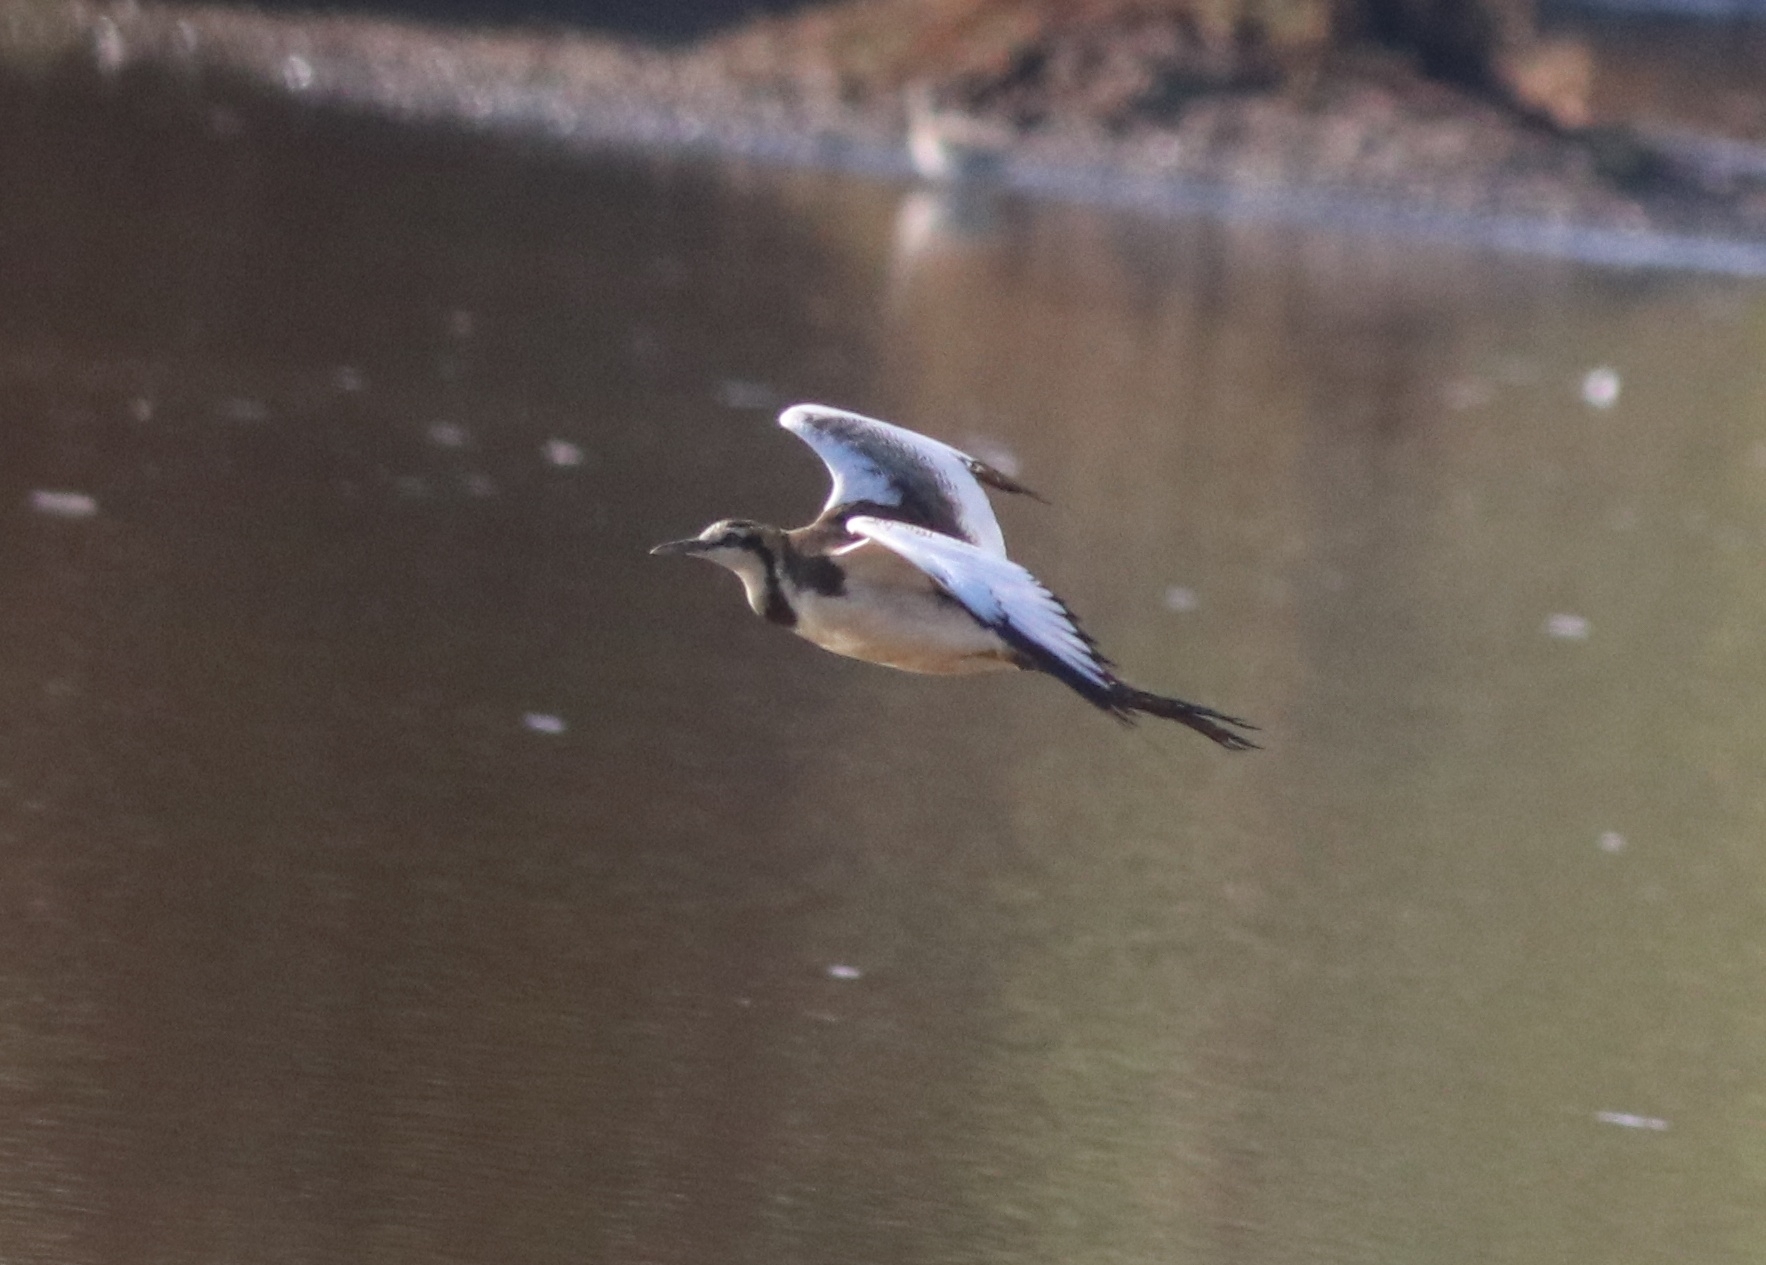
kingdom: Animalia
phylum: Chordata
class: Aves
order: Charadriiformes
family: Jacanidae
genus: Hydrophasianus
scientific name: Hydrophasianus chirurgus
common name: Pheasant-tailed jacana
